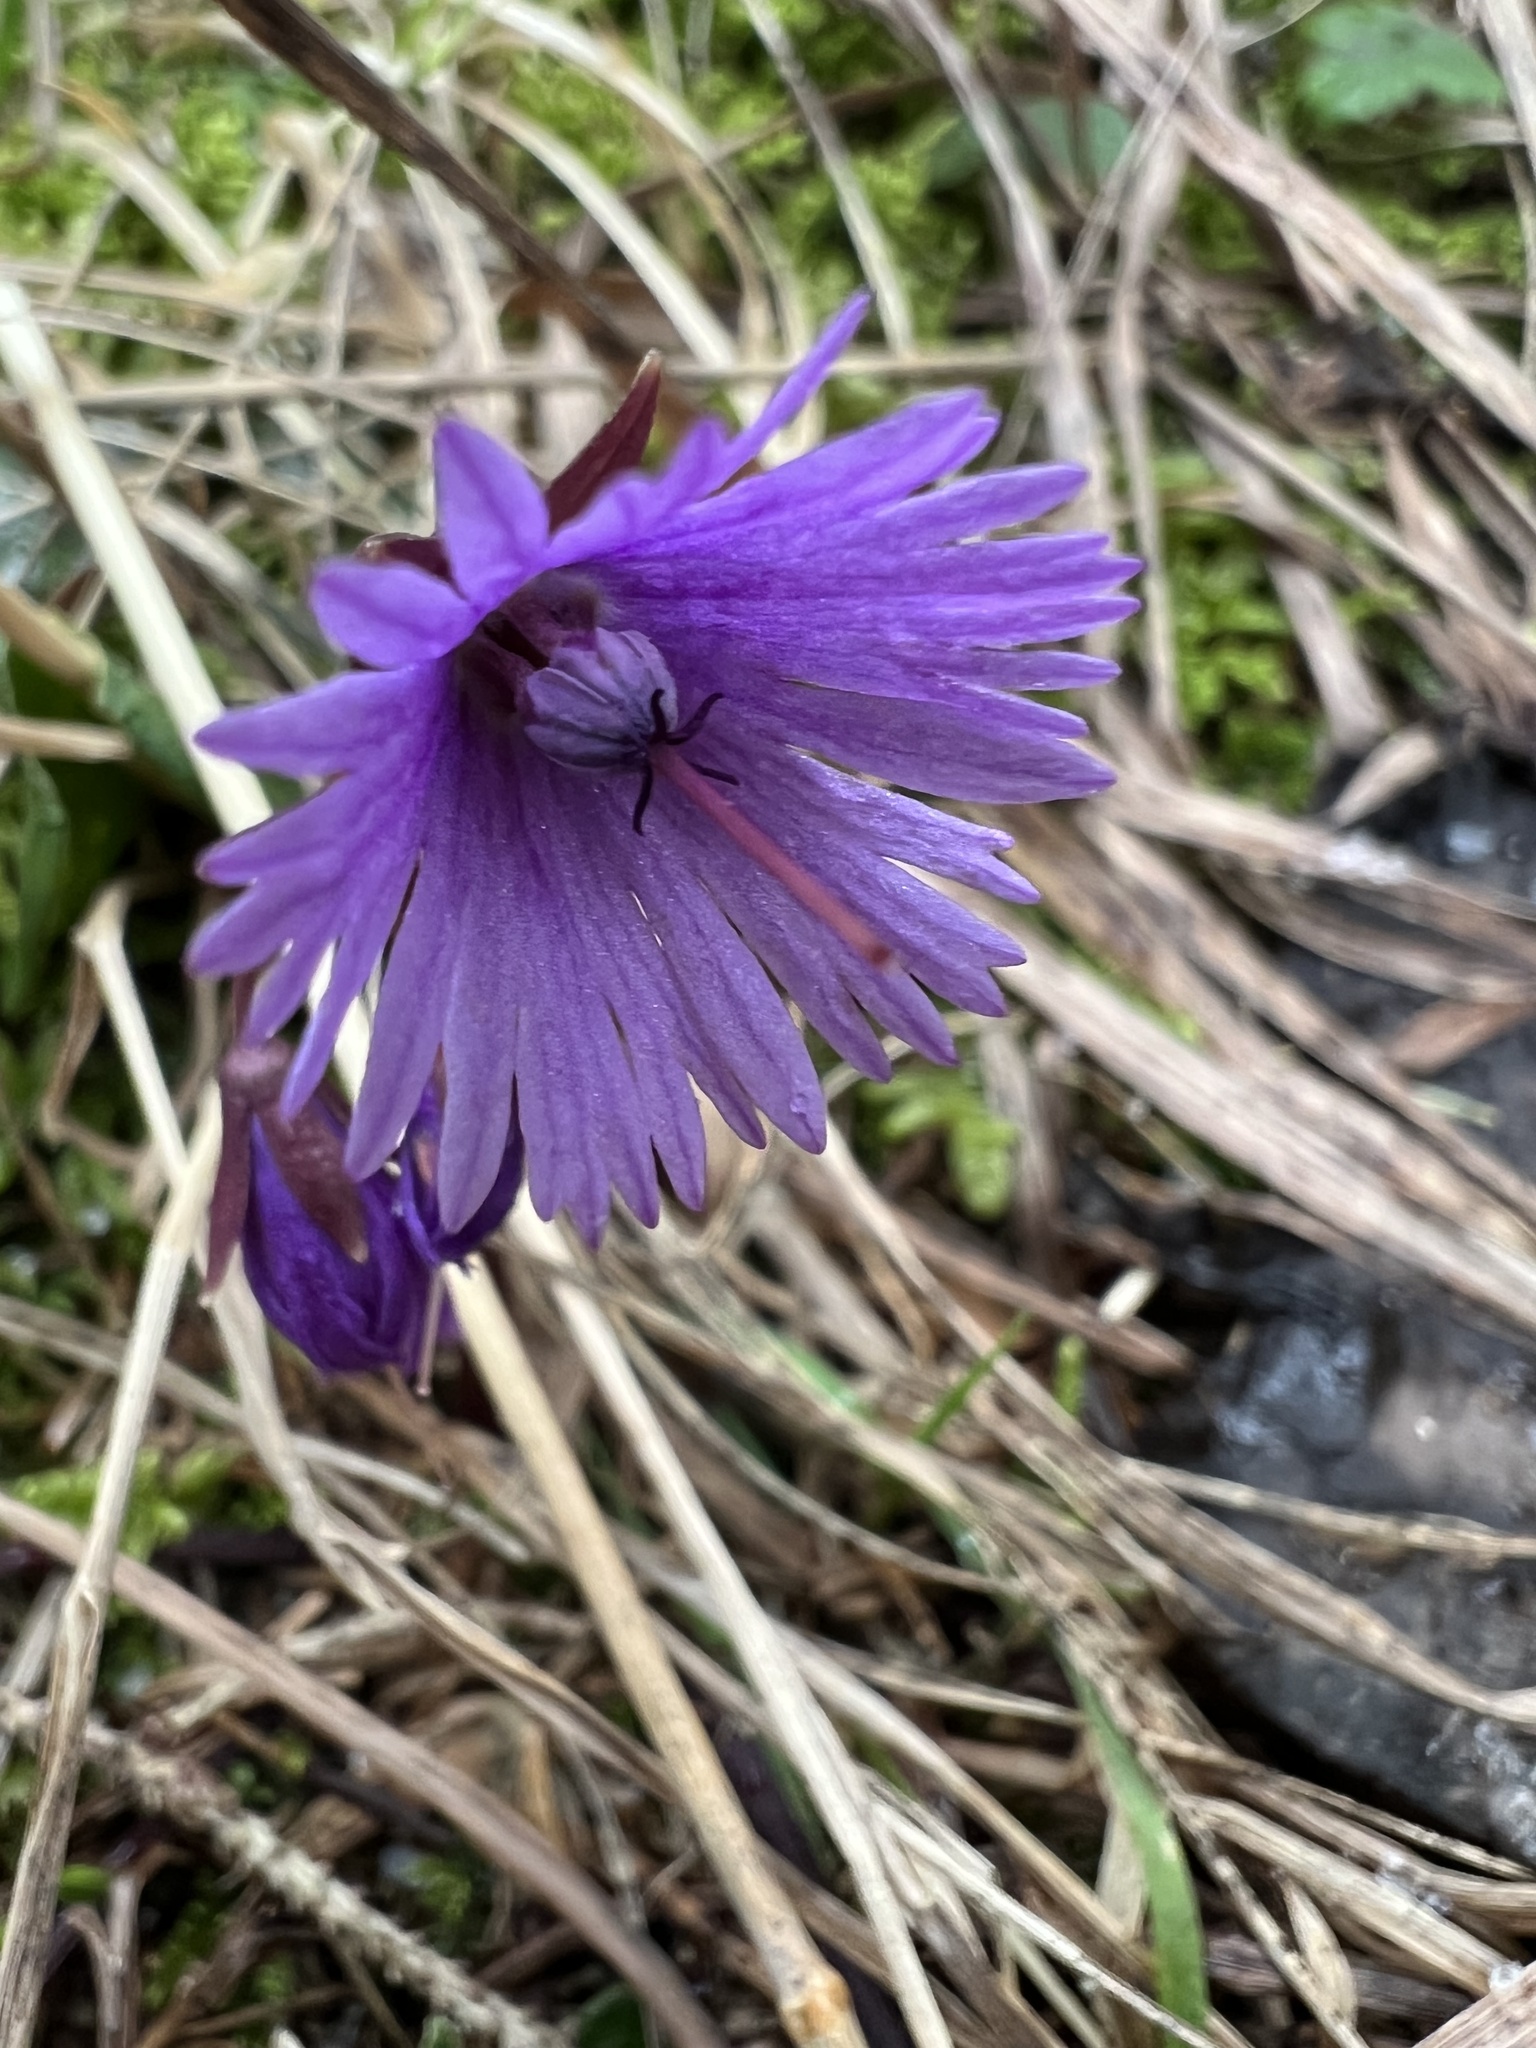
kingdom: Plantae
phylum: Tracheophyta
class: Magnoliopsida
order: Ericales
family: Primulaceae
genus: Soldanella
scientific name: Soldanella alpina
